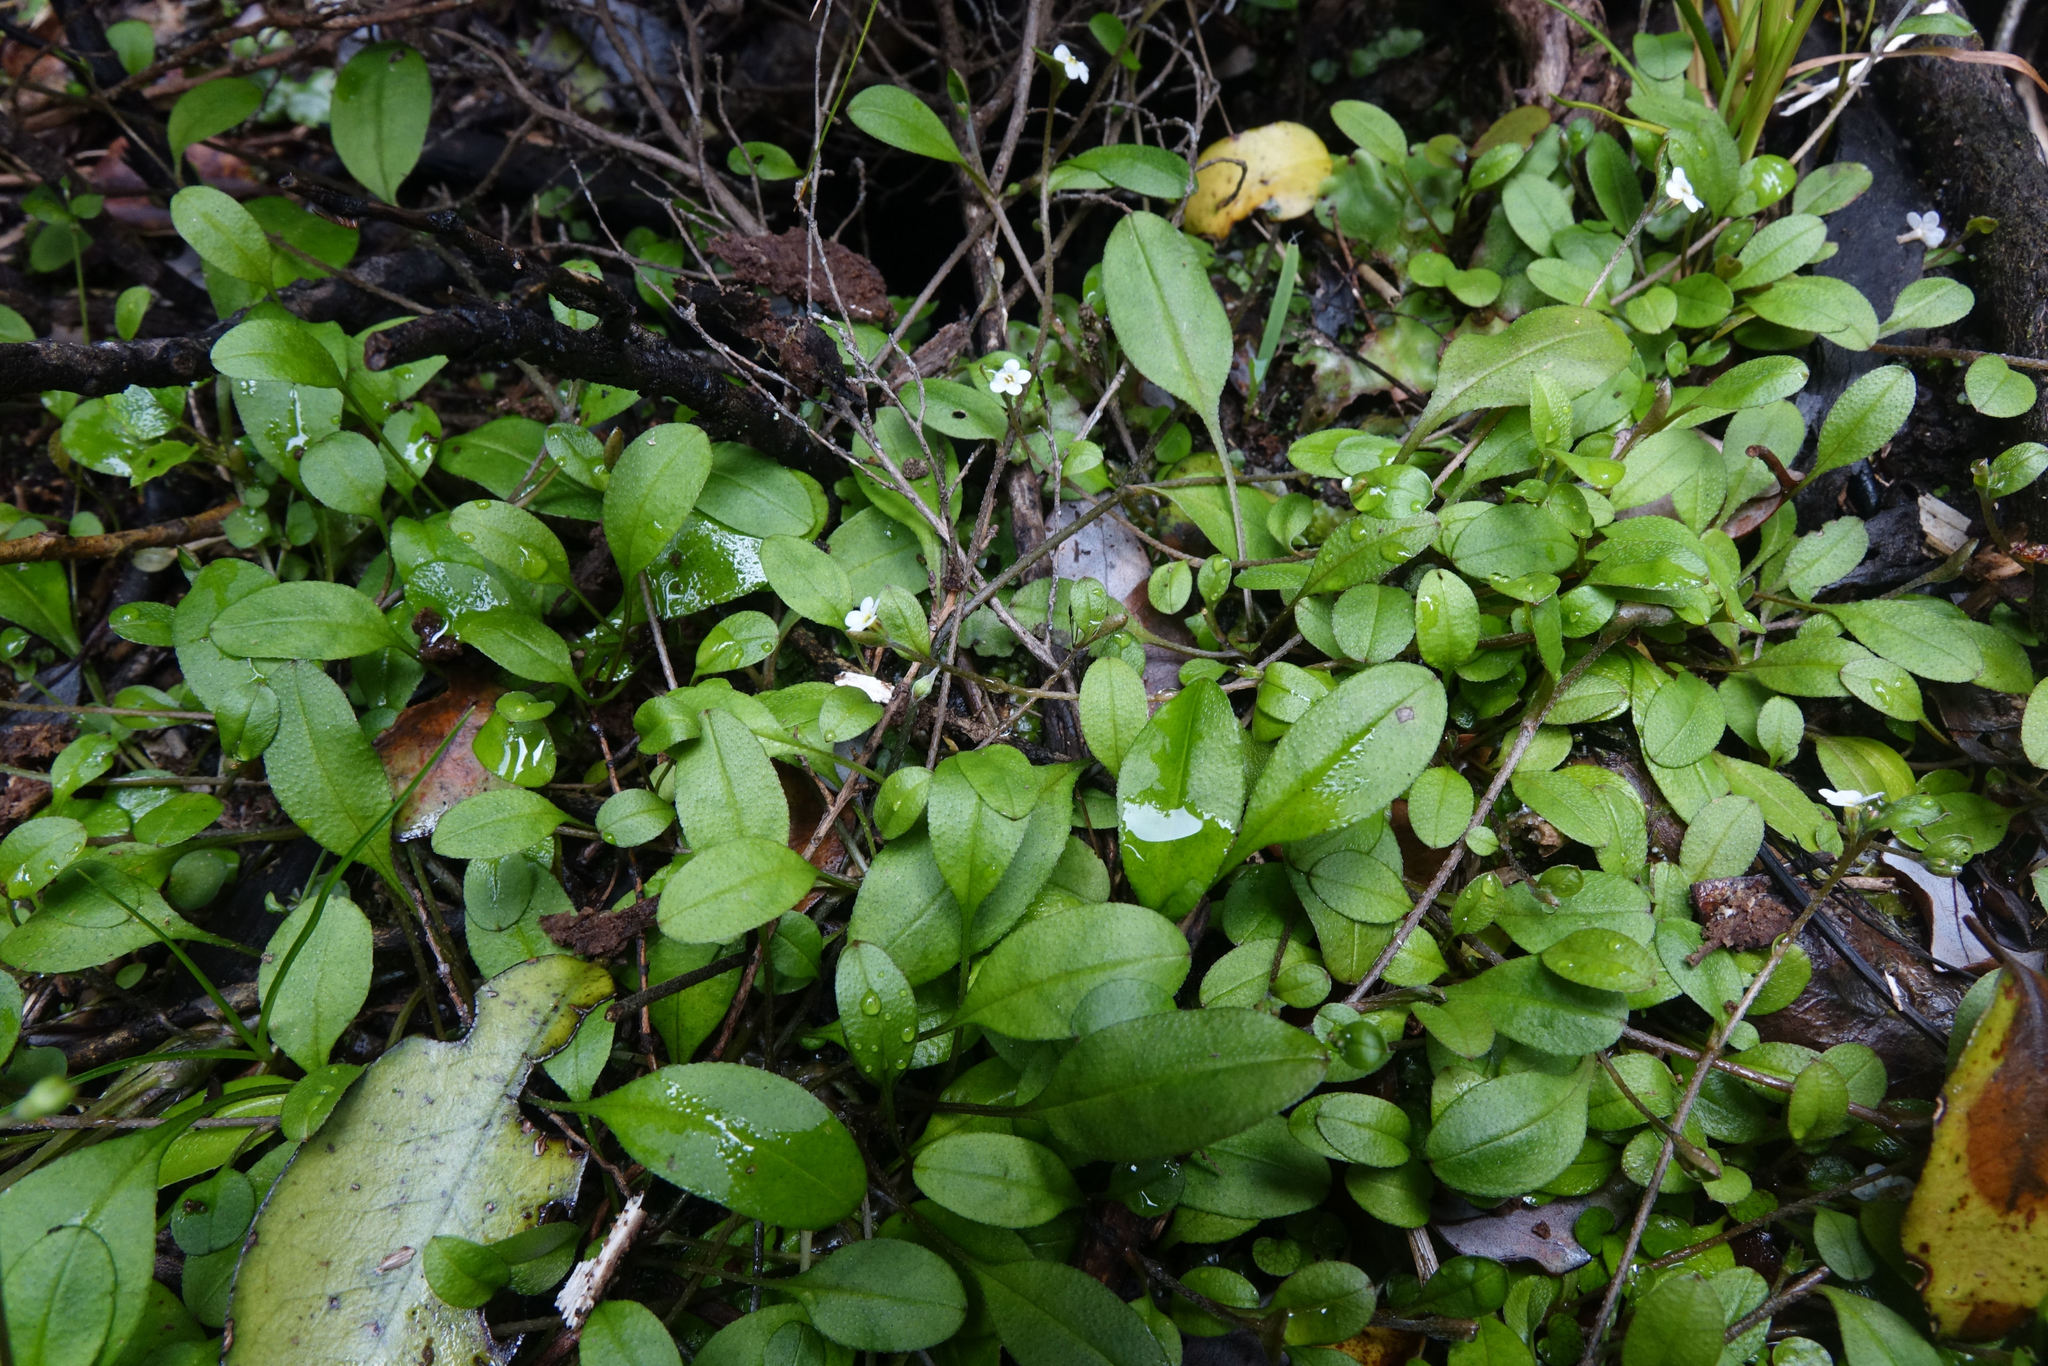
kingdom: Plantae
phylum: Tracheophyta
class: Magnoliopsida
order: Boraginales
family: Boraginaceae
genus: Myosotis
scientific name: Myosotis tenericaulis
